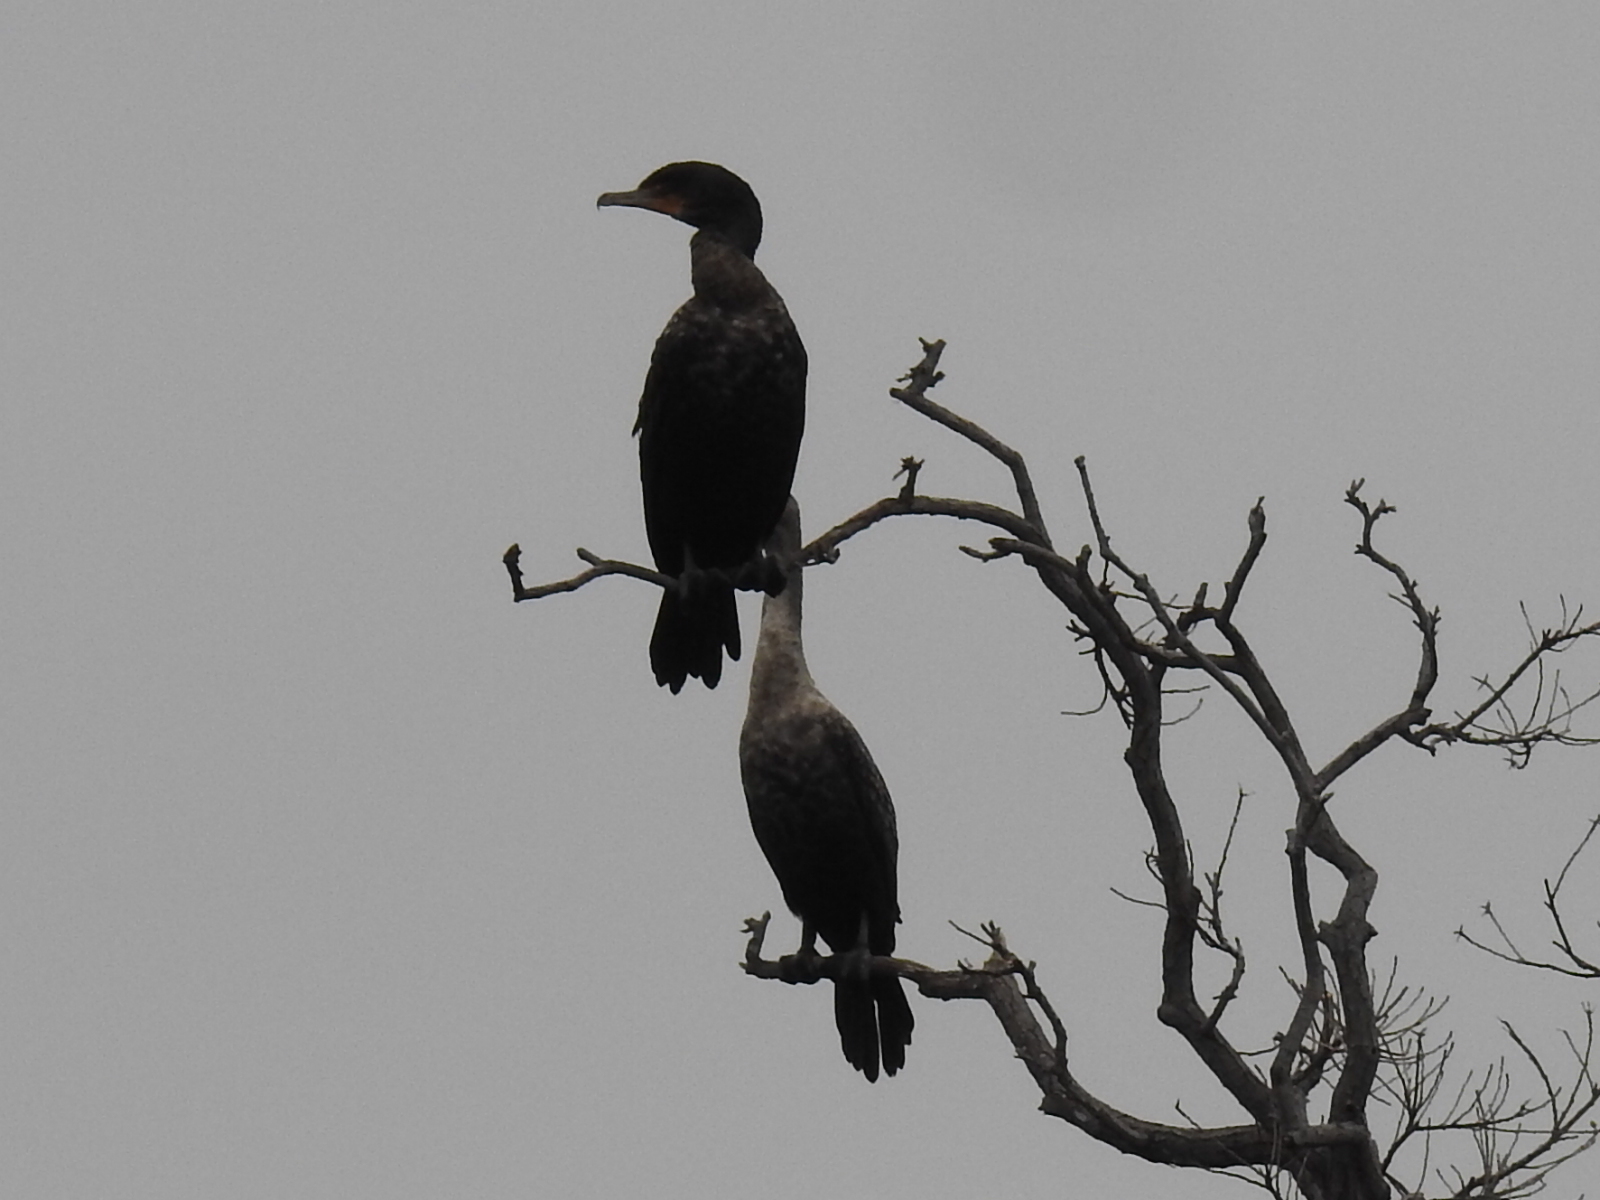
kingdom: Animalia
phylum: Chordata
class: Aves
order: Suliformes
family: Phalacrocoracidae
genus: Phalacrocorax
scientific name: Phalacrocorax auritus
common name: Double-crested cormorant
